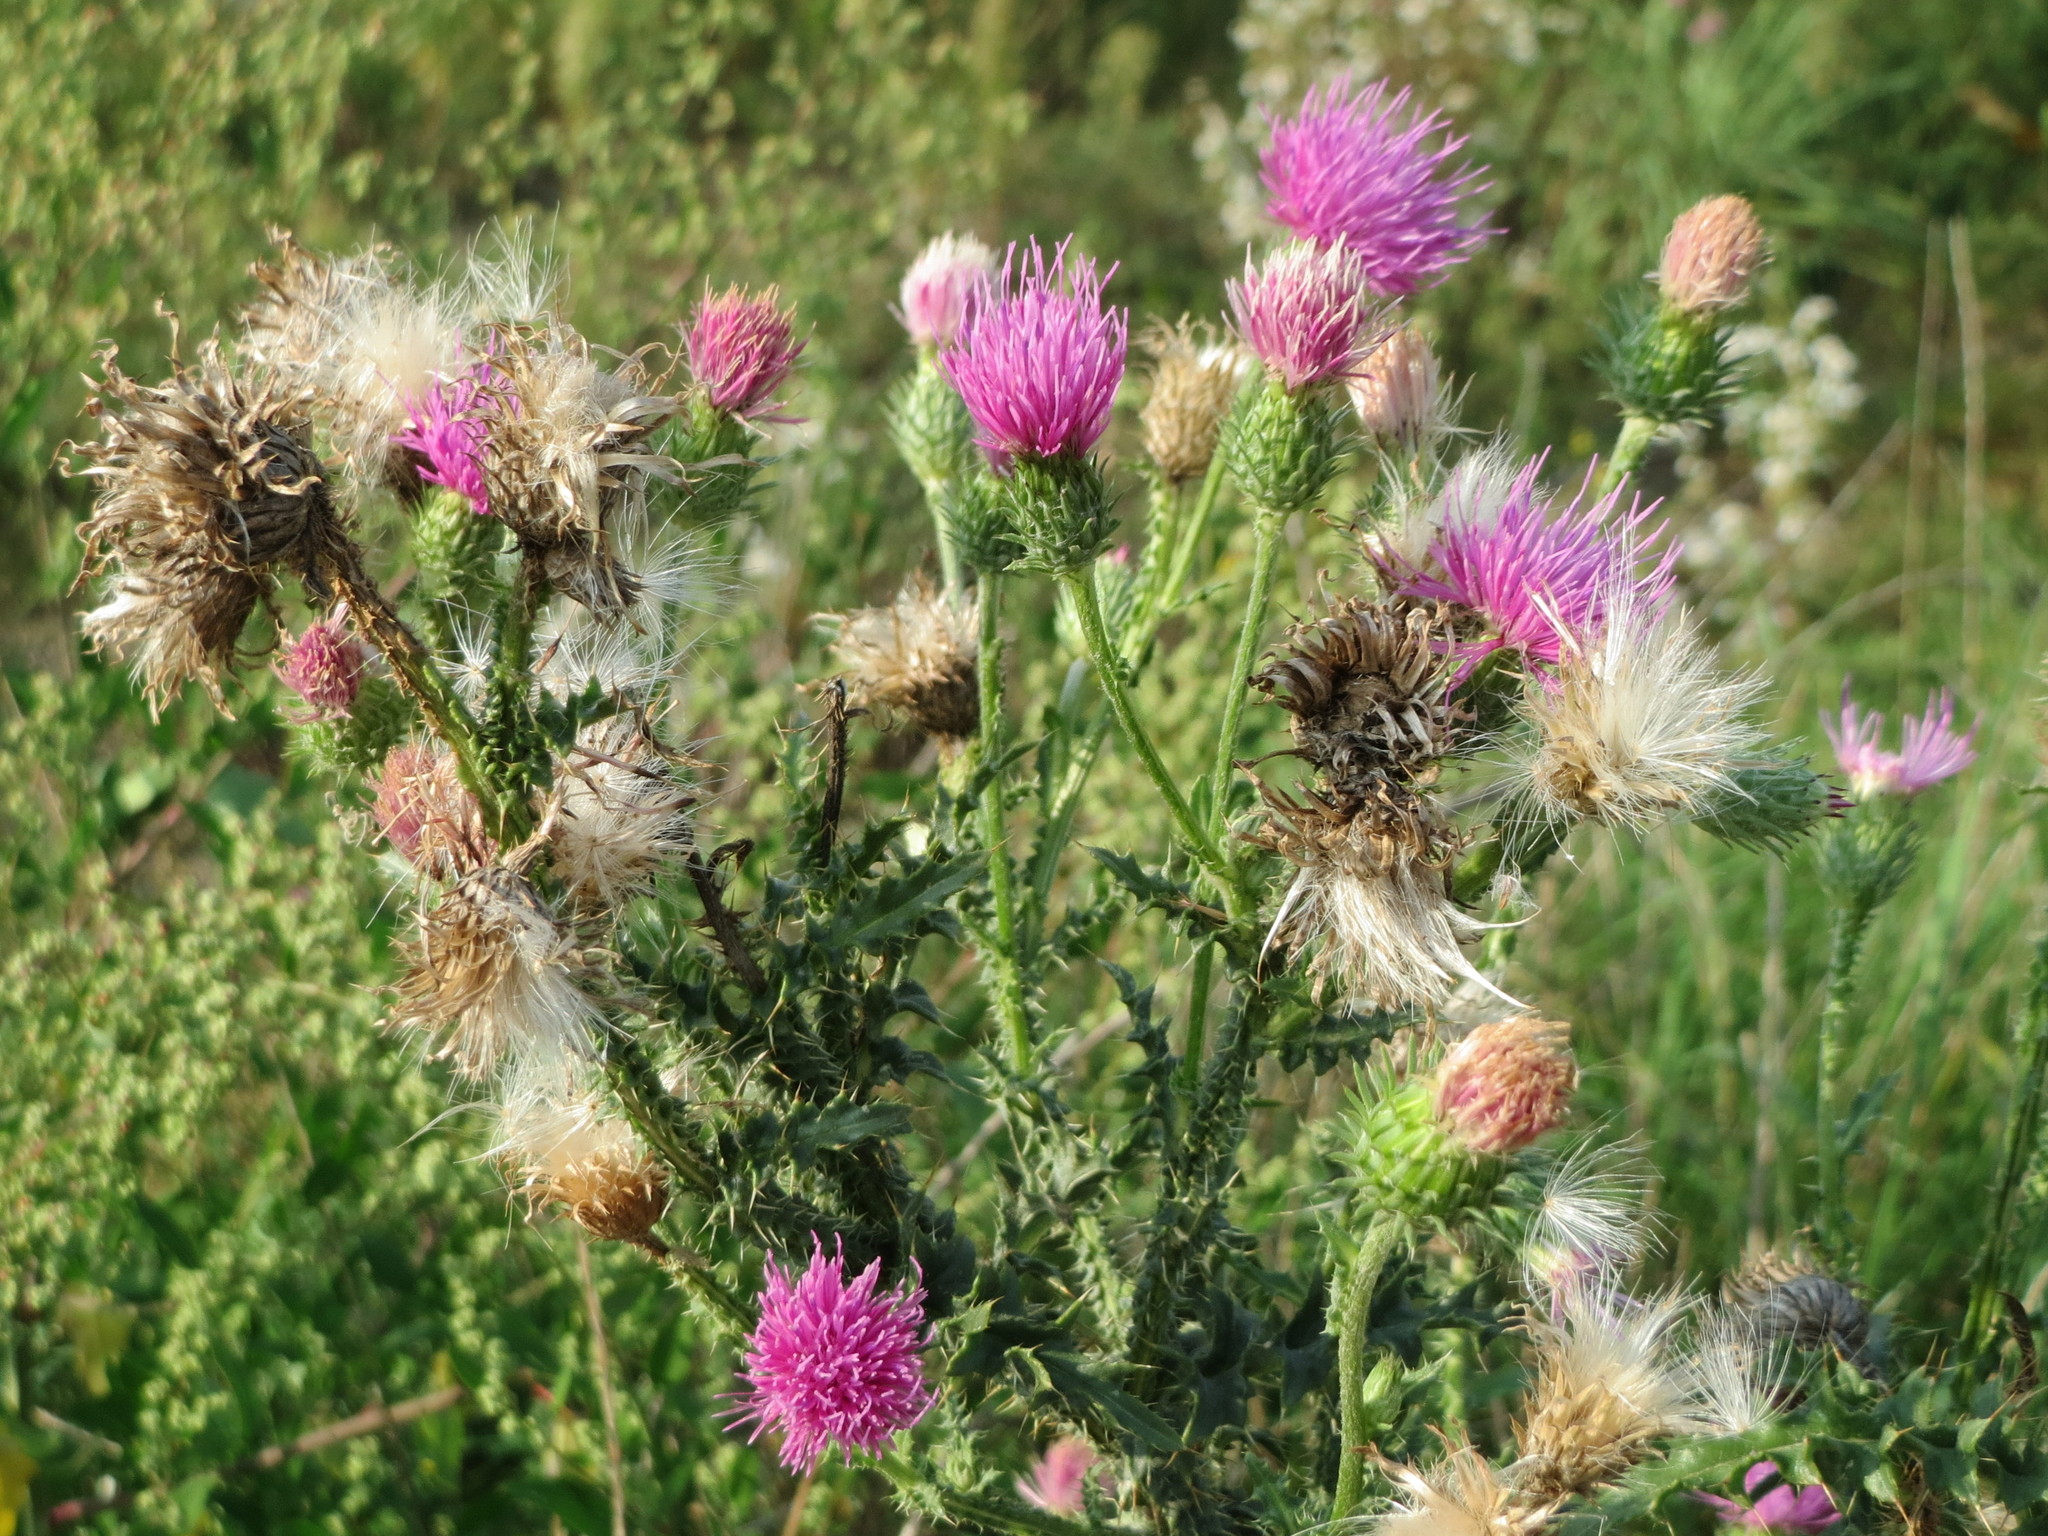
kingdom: Plantae
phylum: Tracheophyta
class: Magnoliopsida
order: Asterales
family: Asteraceae
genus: Carduus
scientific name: Carduus acanthoides
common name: Plumeless thistle
